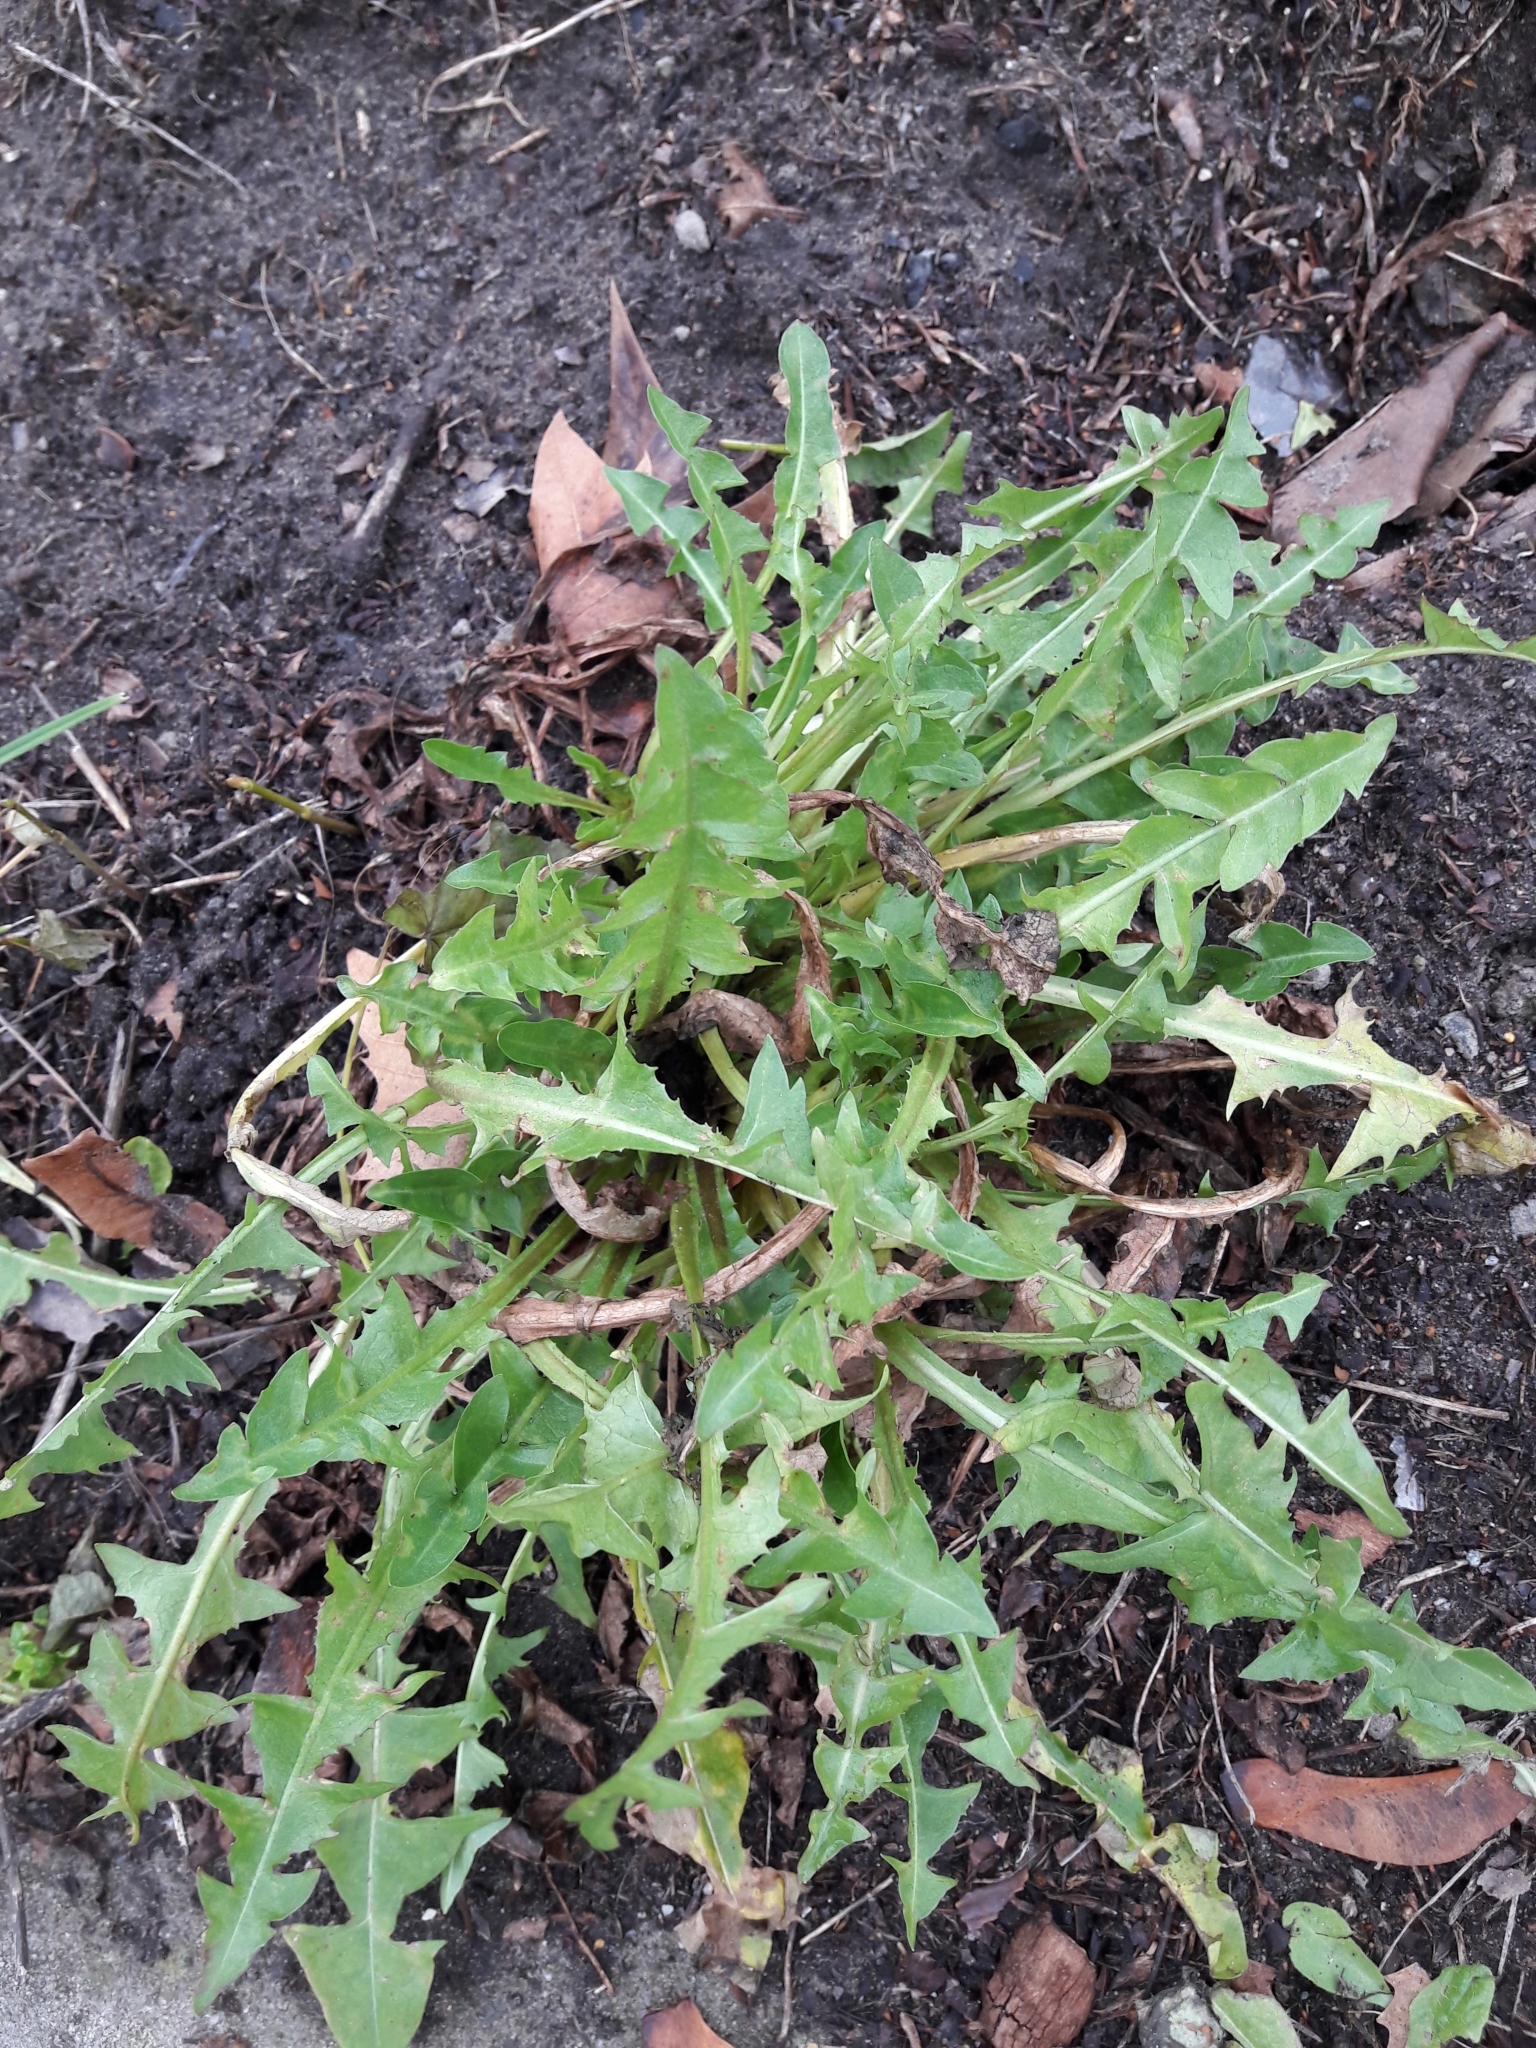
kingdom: Plantae
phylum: Tracheophyta
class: Magnoliopsida
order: Asterales
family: Asteraceae
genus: Taraxacum
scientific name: Taraxacum officinale
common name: Common dandelion
